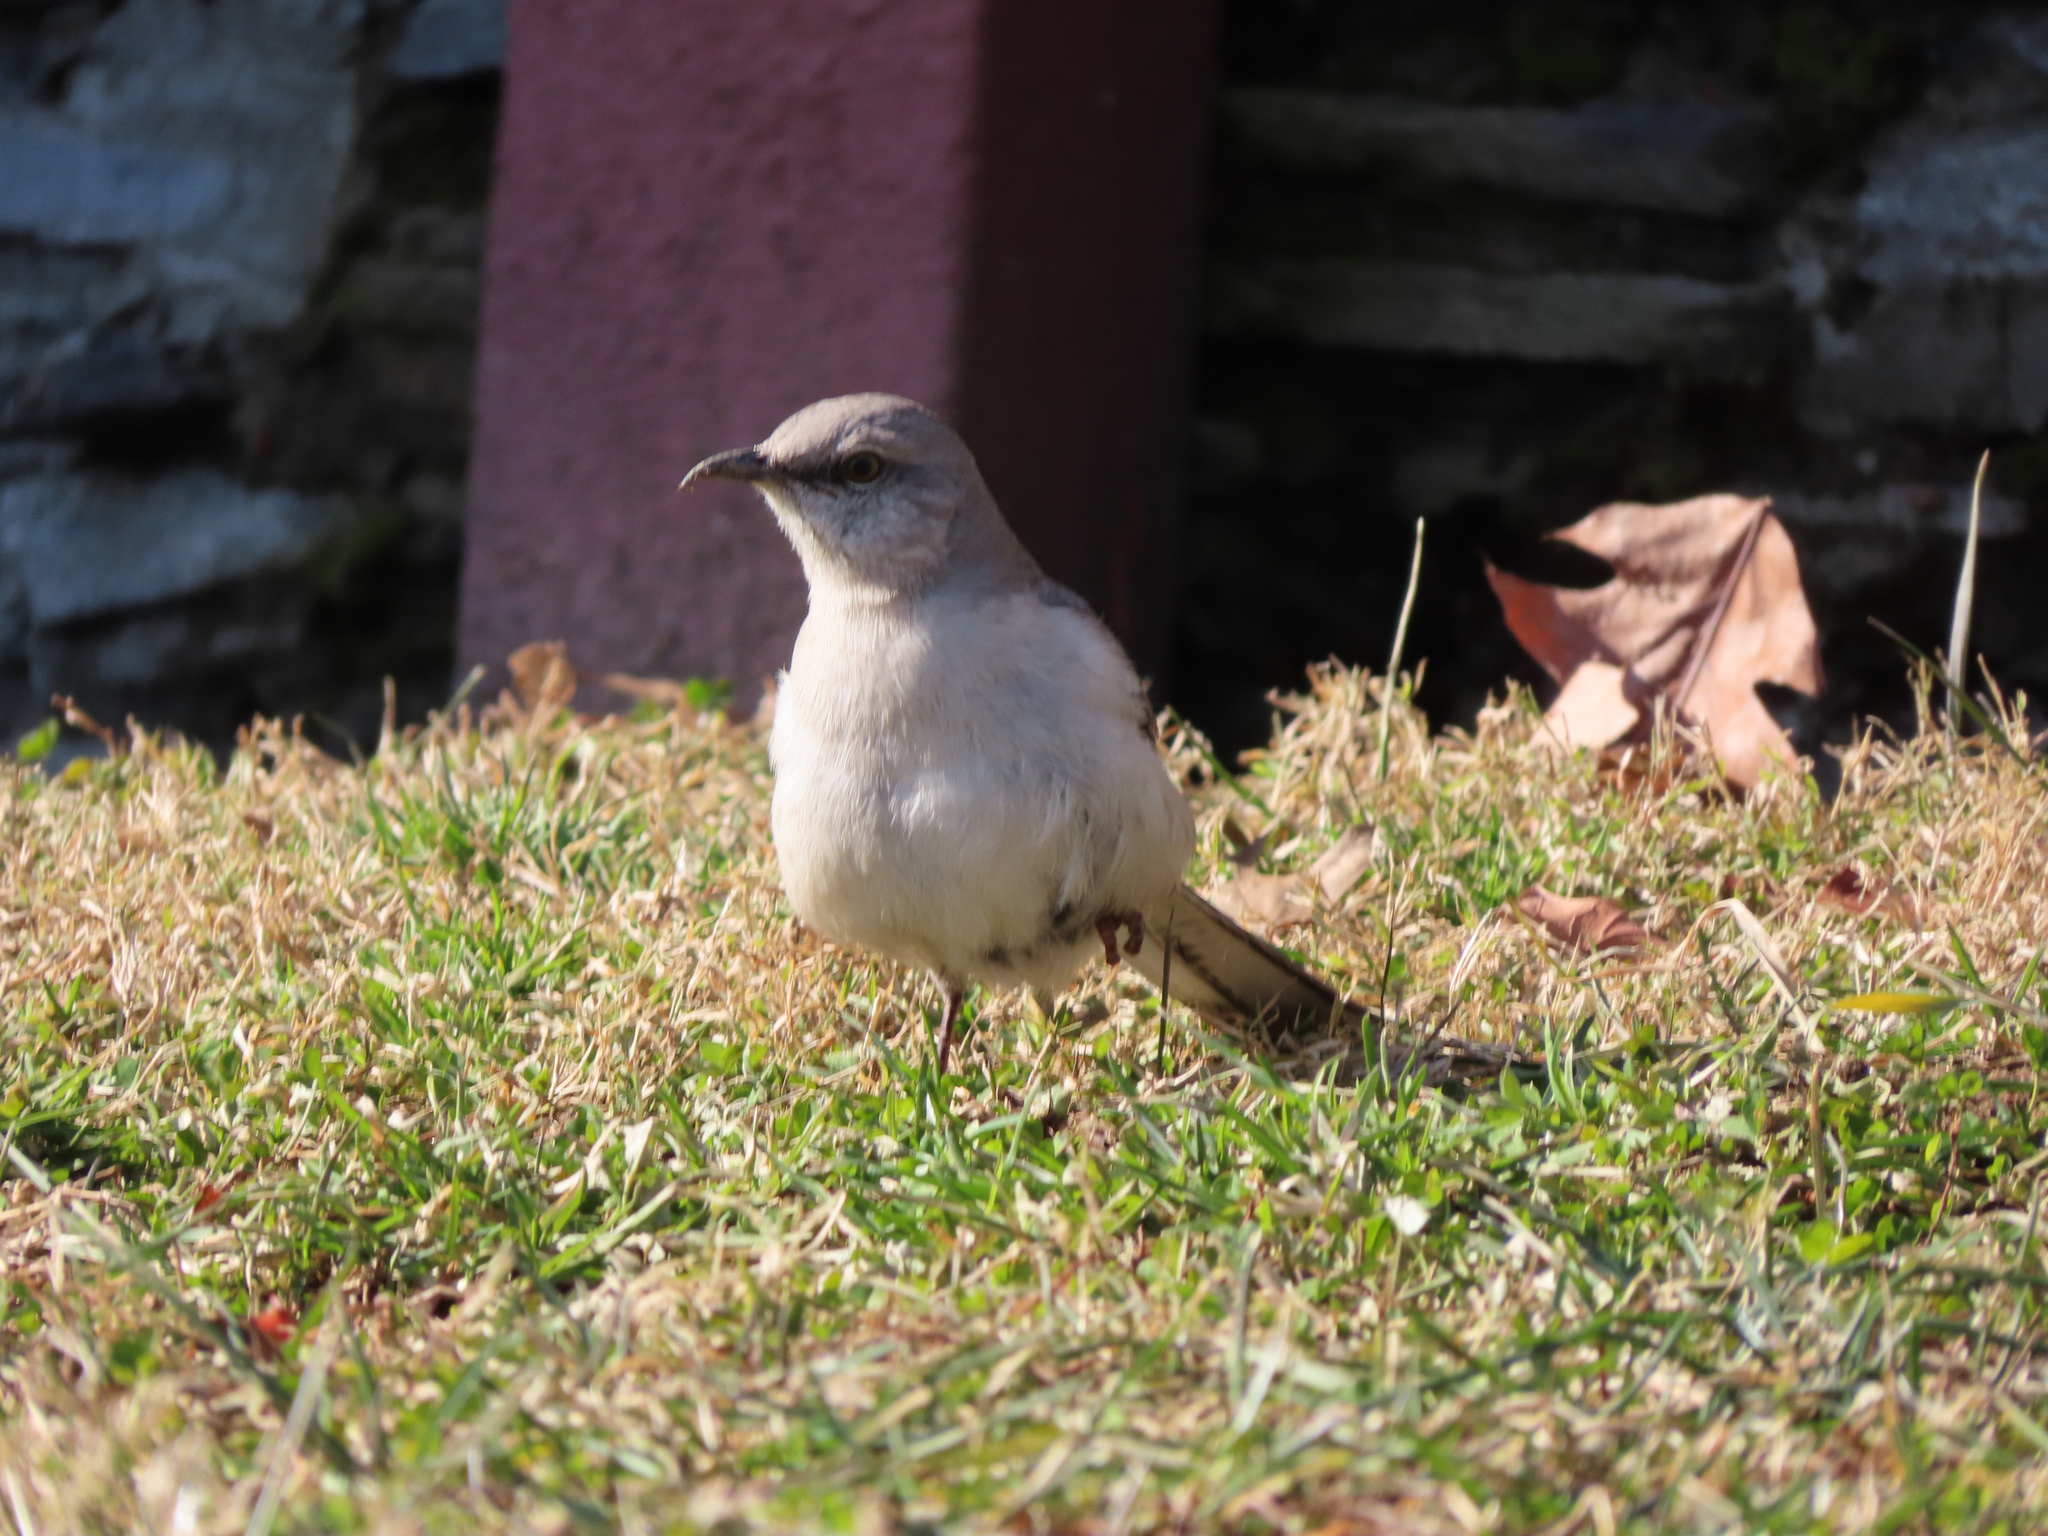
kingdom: Animalia
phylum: Chordata
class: Aves
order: Passeriformes
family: Mimidae
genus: Mimus
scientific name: Mimus polyglottos
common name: Northern mockingbird
